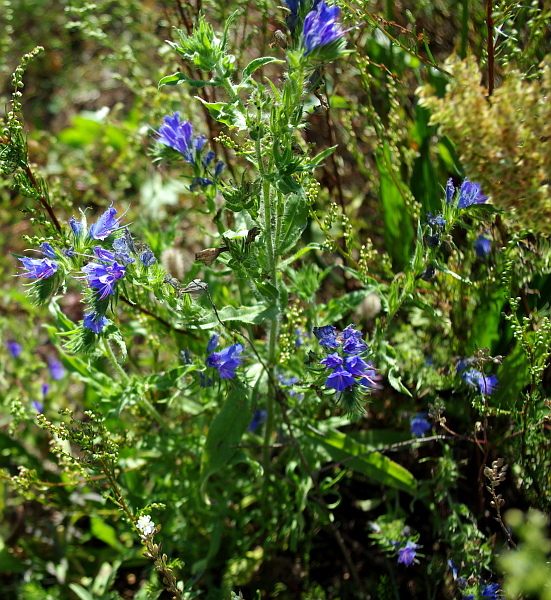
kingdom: Plantae
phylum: Tracheophyta
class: Magnoliopsida
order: Boraginales
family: Boraginaceae
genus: Echium
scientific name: Echium vulgare
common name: Common viper's bugloss
